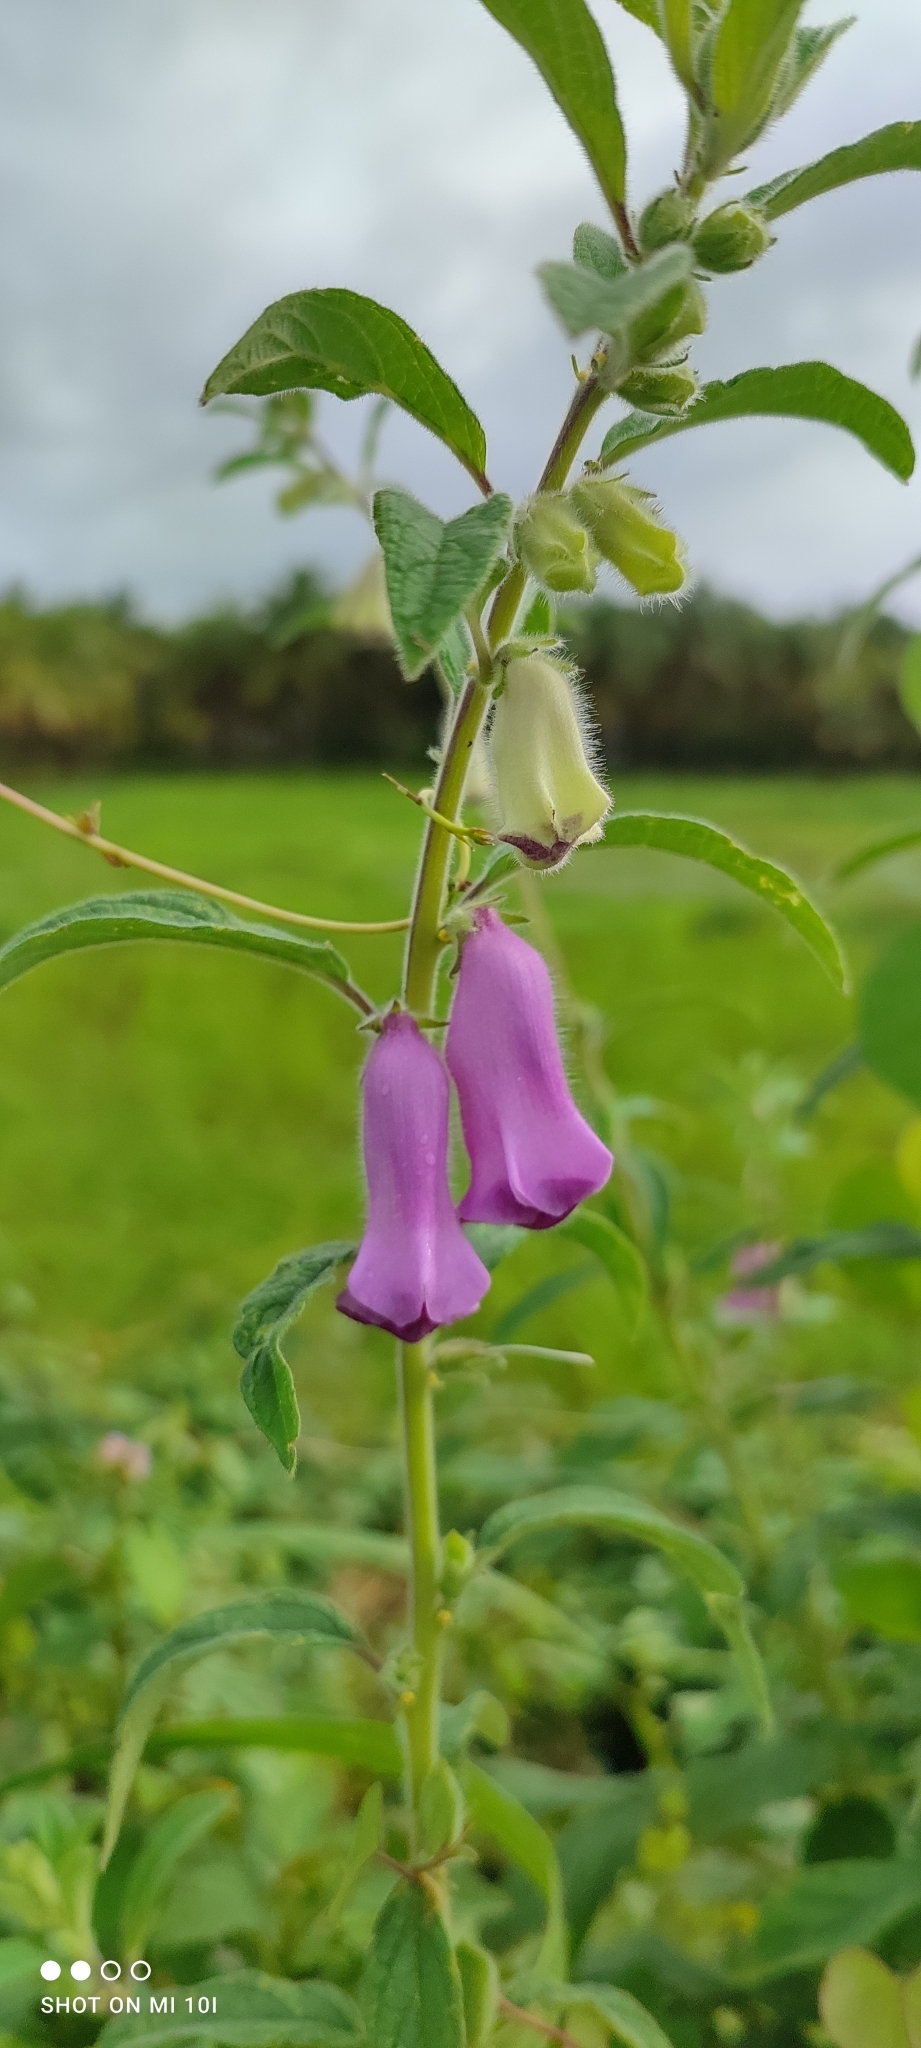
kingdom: Plantae
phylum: Tracheophyta
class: Magnoliopsida
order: Lamiales
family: Pedaliaceae
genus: Sesamum
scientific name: Sesamum indicum
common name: Sesame
